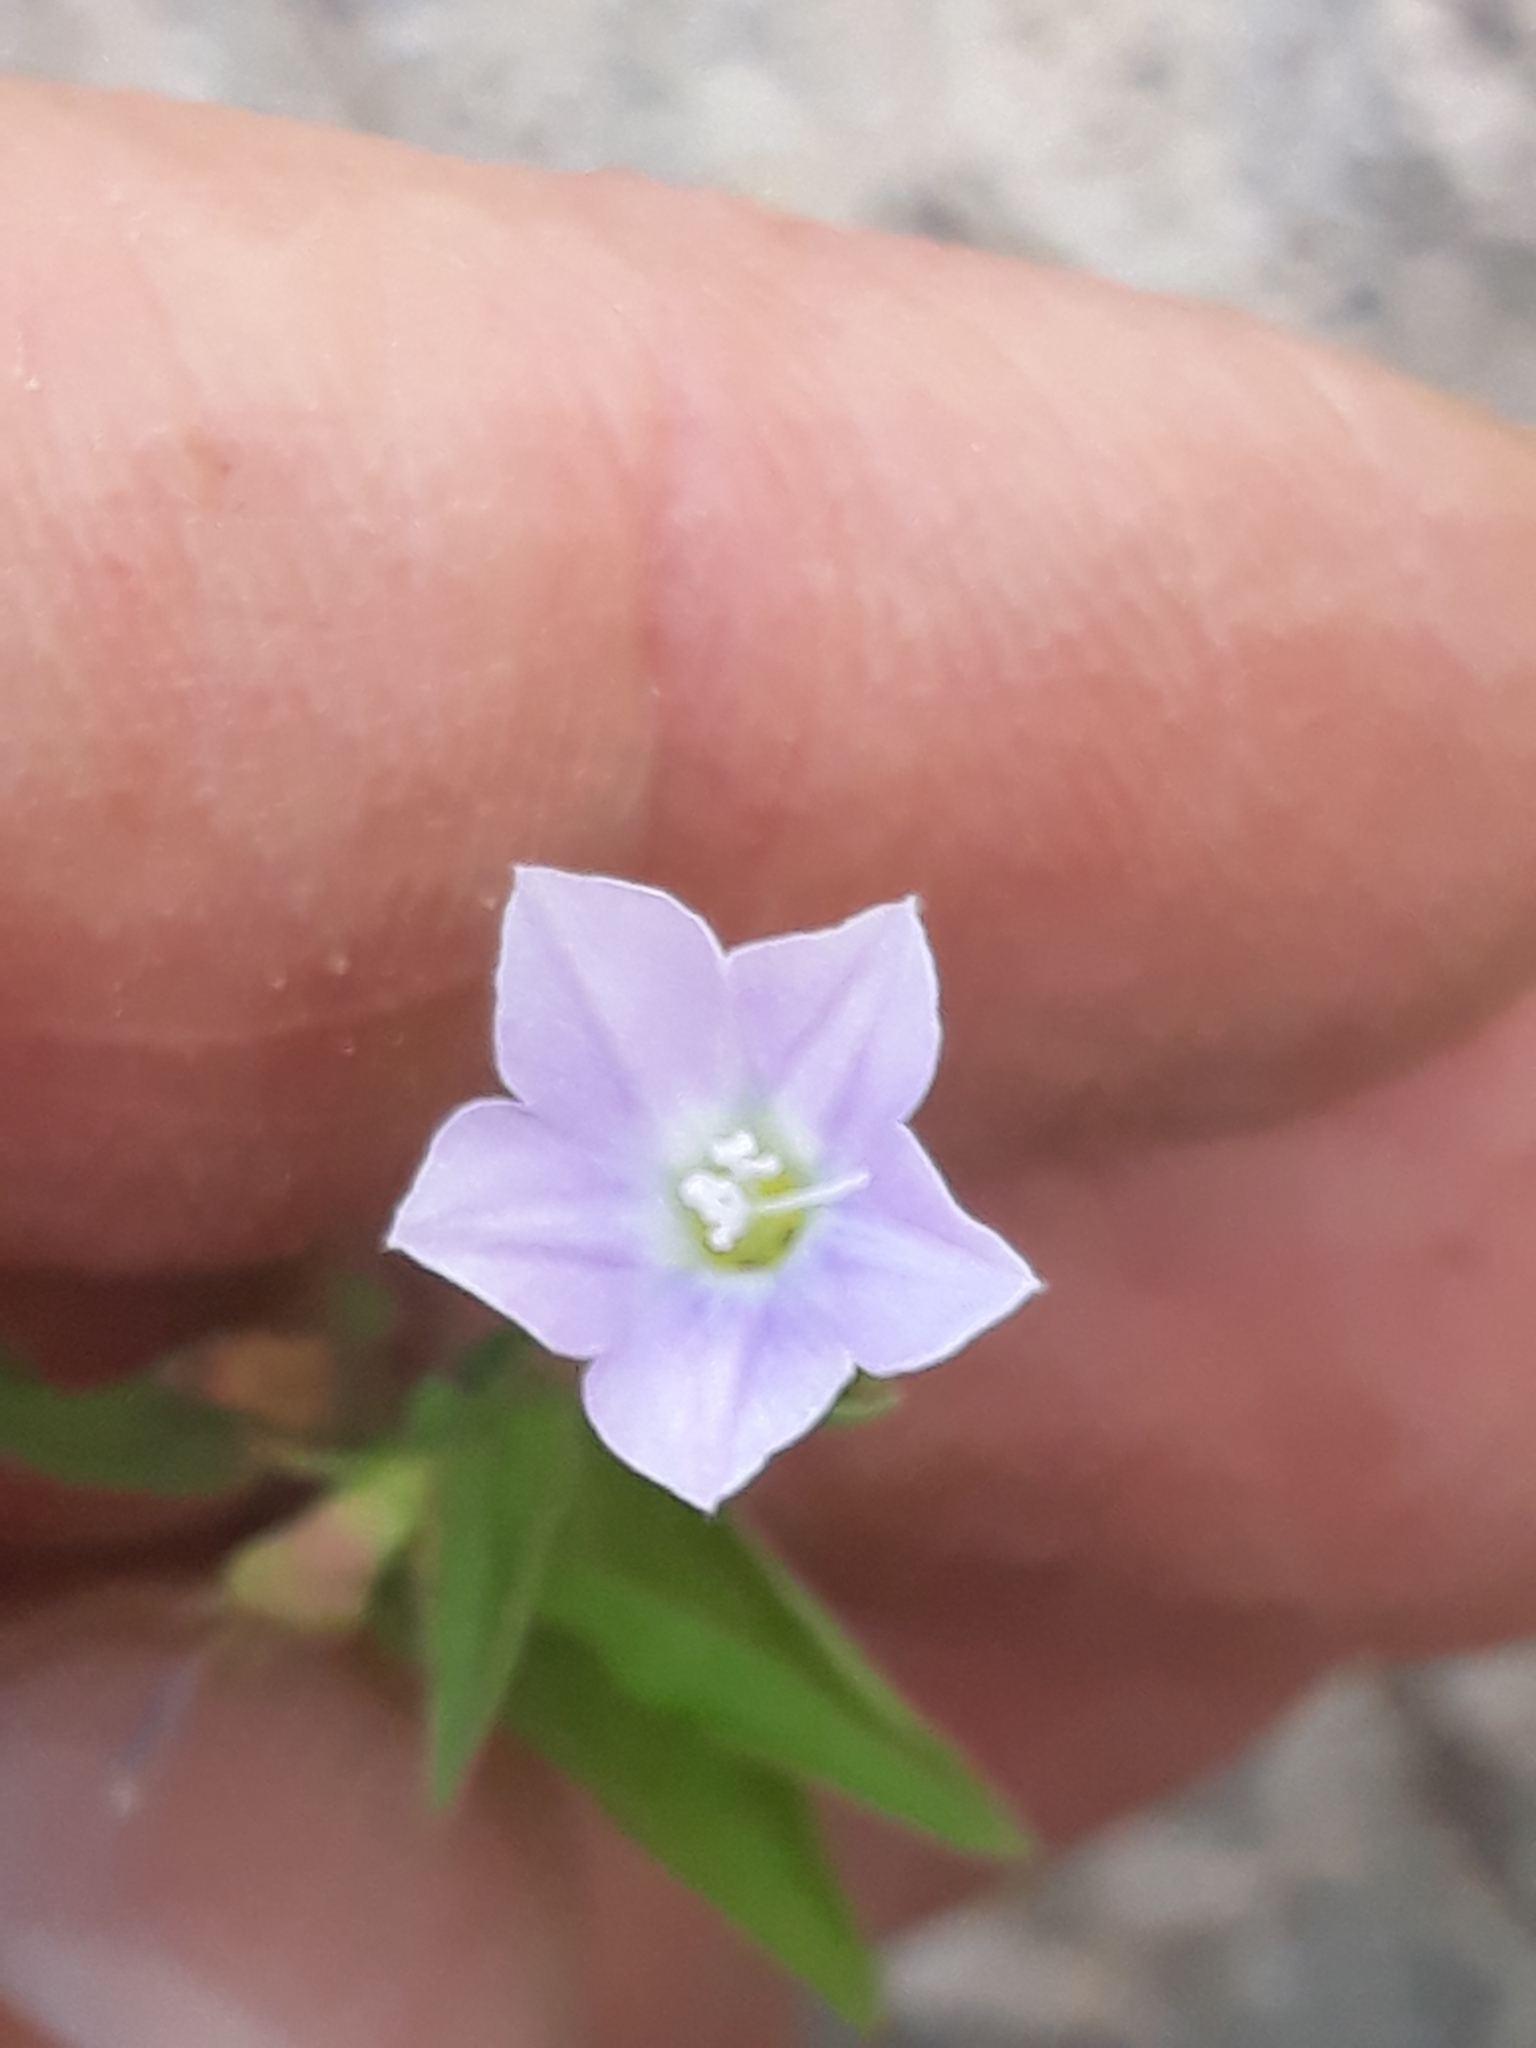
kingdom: Plantae
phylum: Tracheophyta
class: Magnoliopsida
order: Solanales
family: Convolvulaceae
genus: Convolvulus
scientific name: Convolvulus siculus
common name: Small blue-convolvulus
